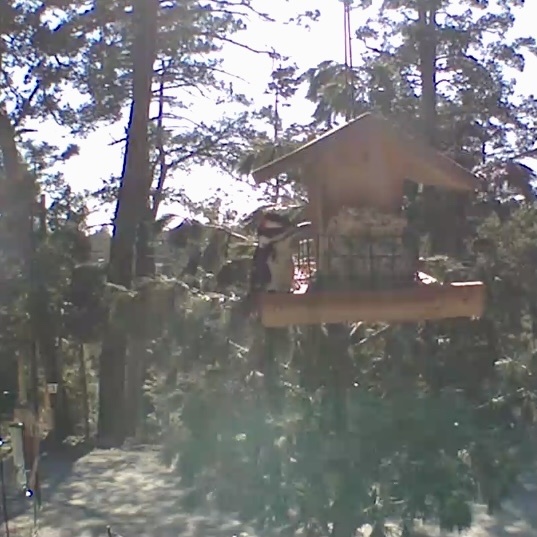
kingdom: Animalia
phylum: Chordata
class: Aves
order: Piciformes
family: Picidae
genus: Leuconotopicus
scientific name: Leuconotopicus villosus
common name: Hairy woodpecker
